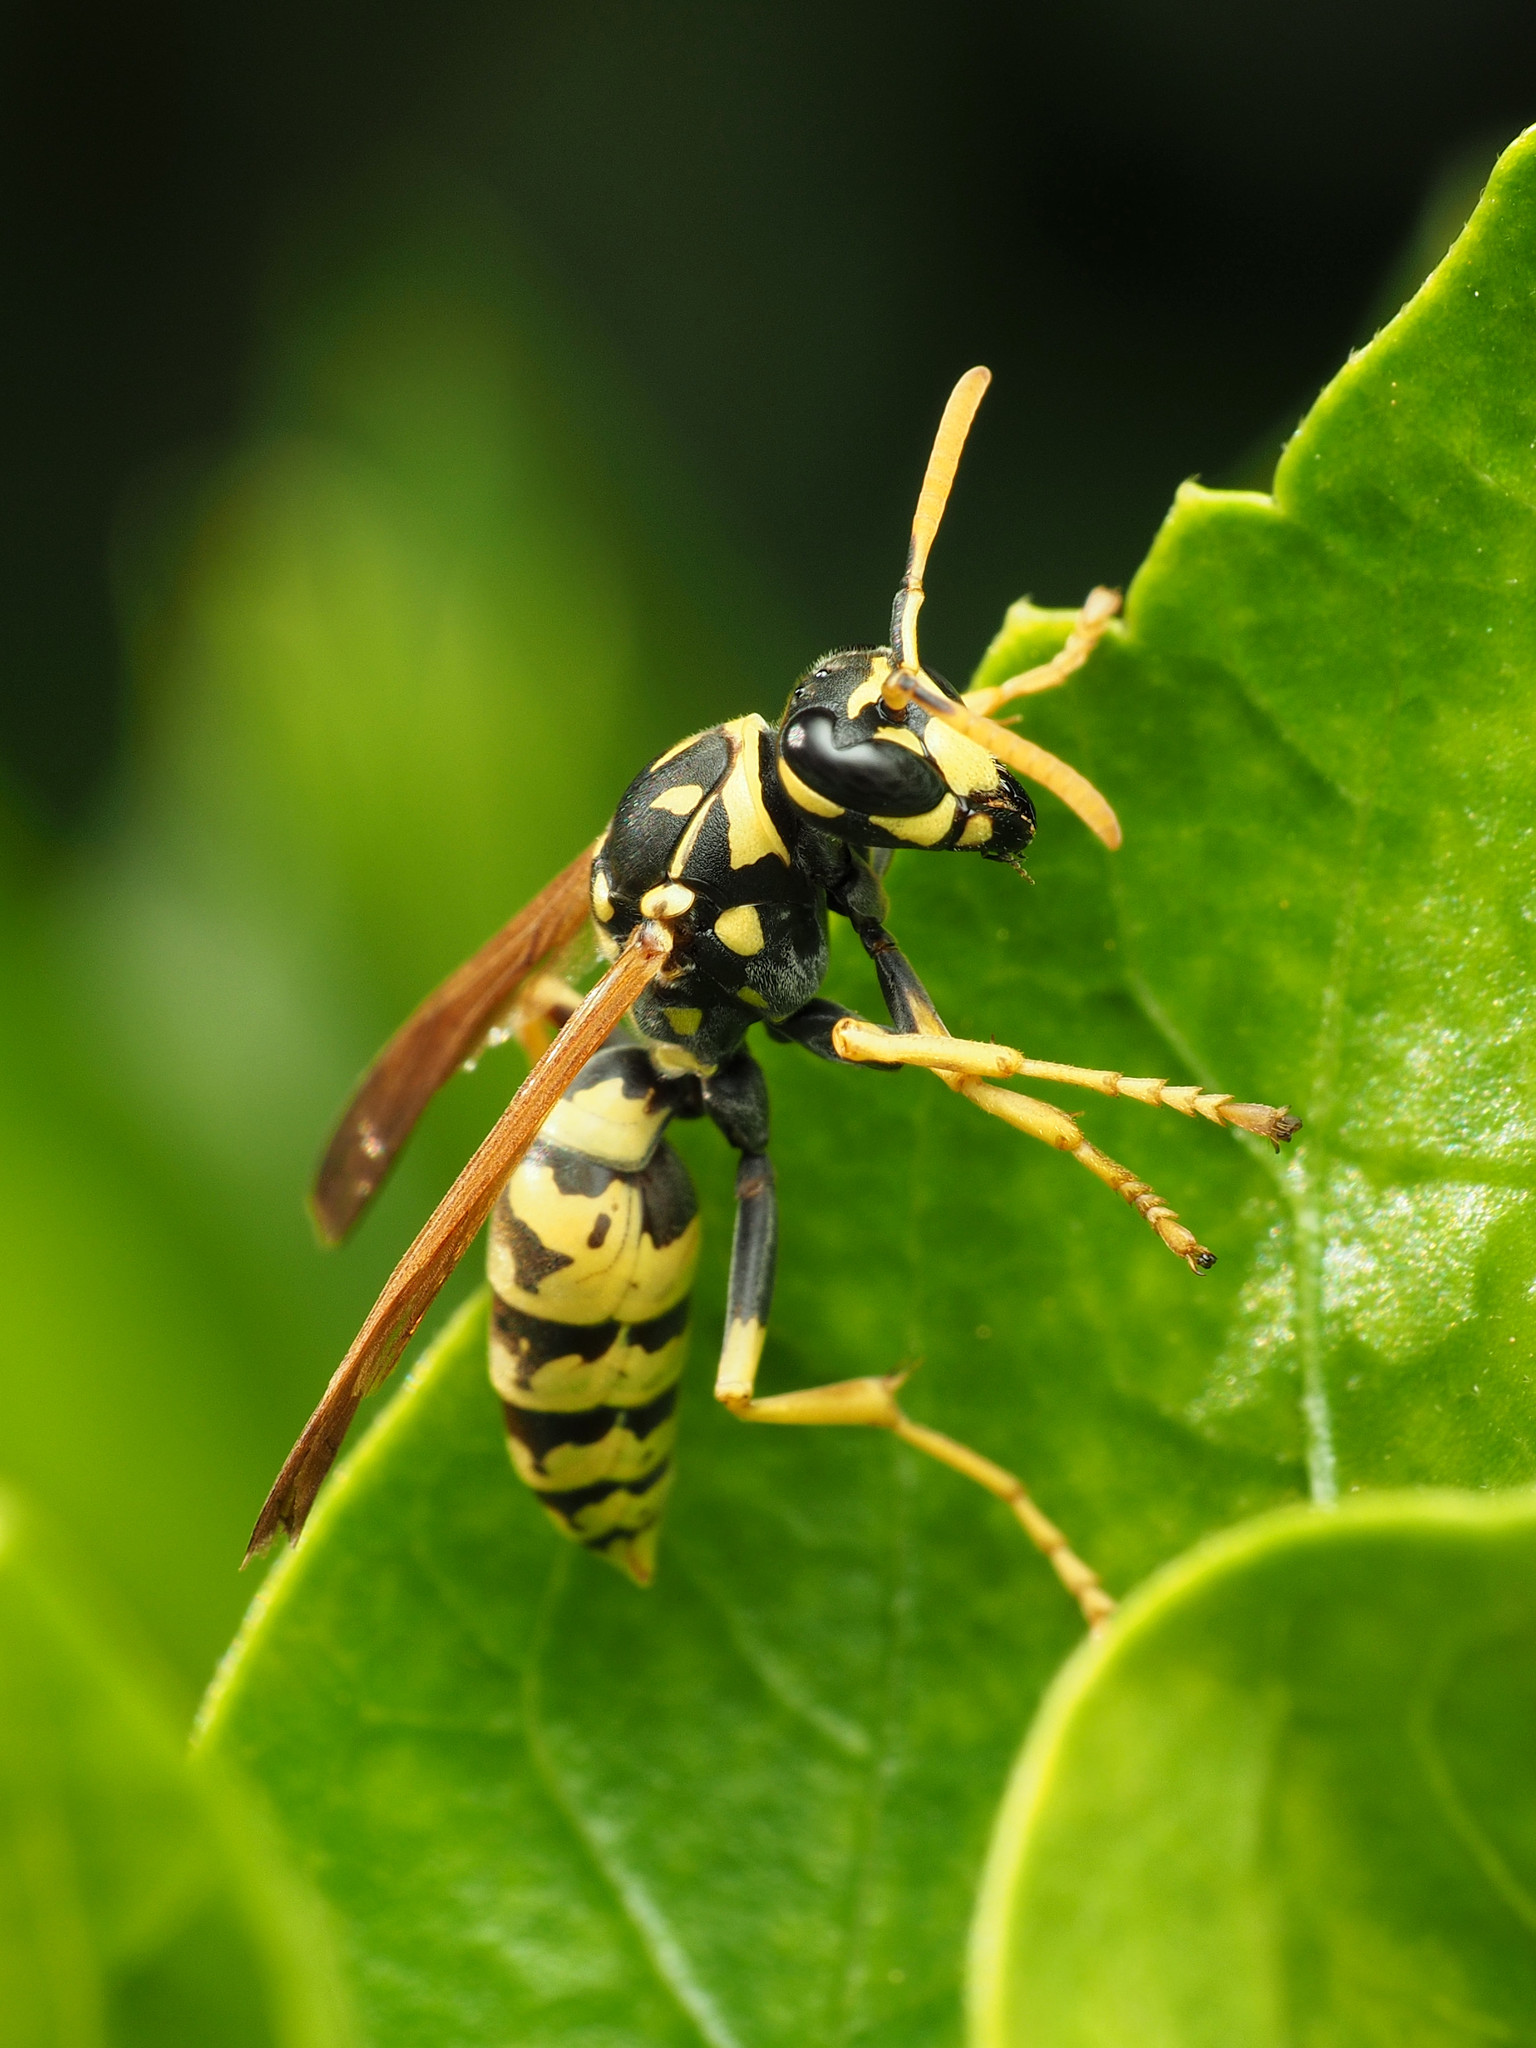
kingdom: Animalia
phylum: Arthropoda
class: Insecta
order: Hymenoptera
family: Eumenidae
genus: Polistes
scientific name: Polistes dominula
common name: Paper wasp
